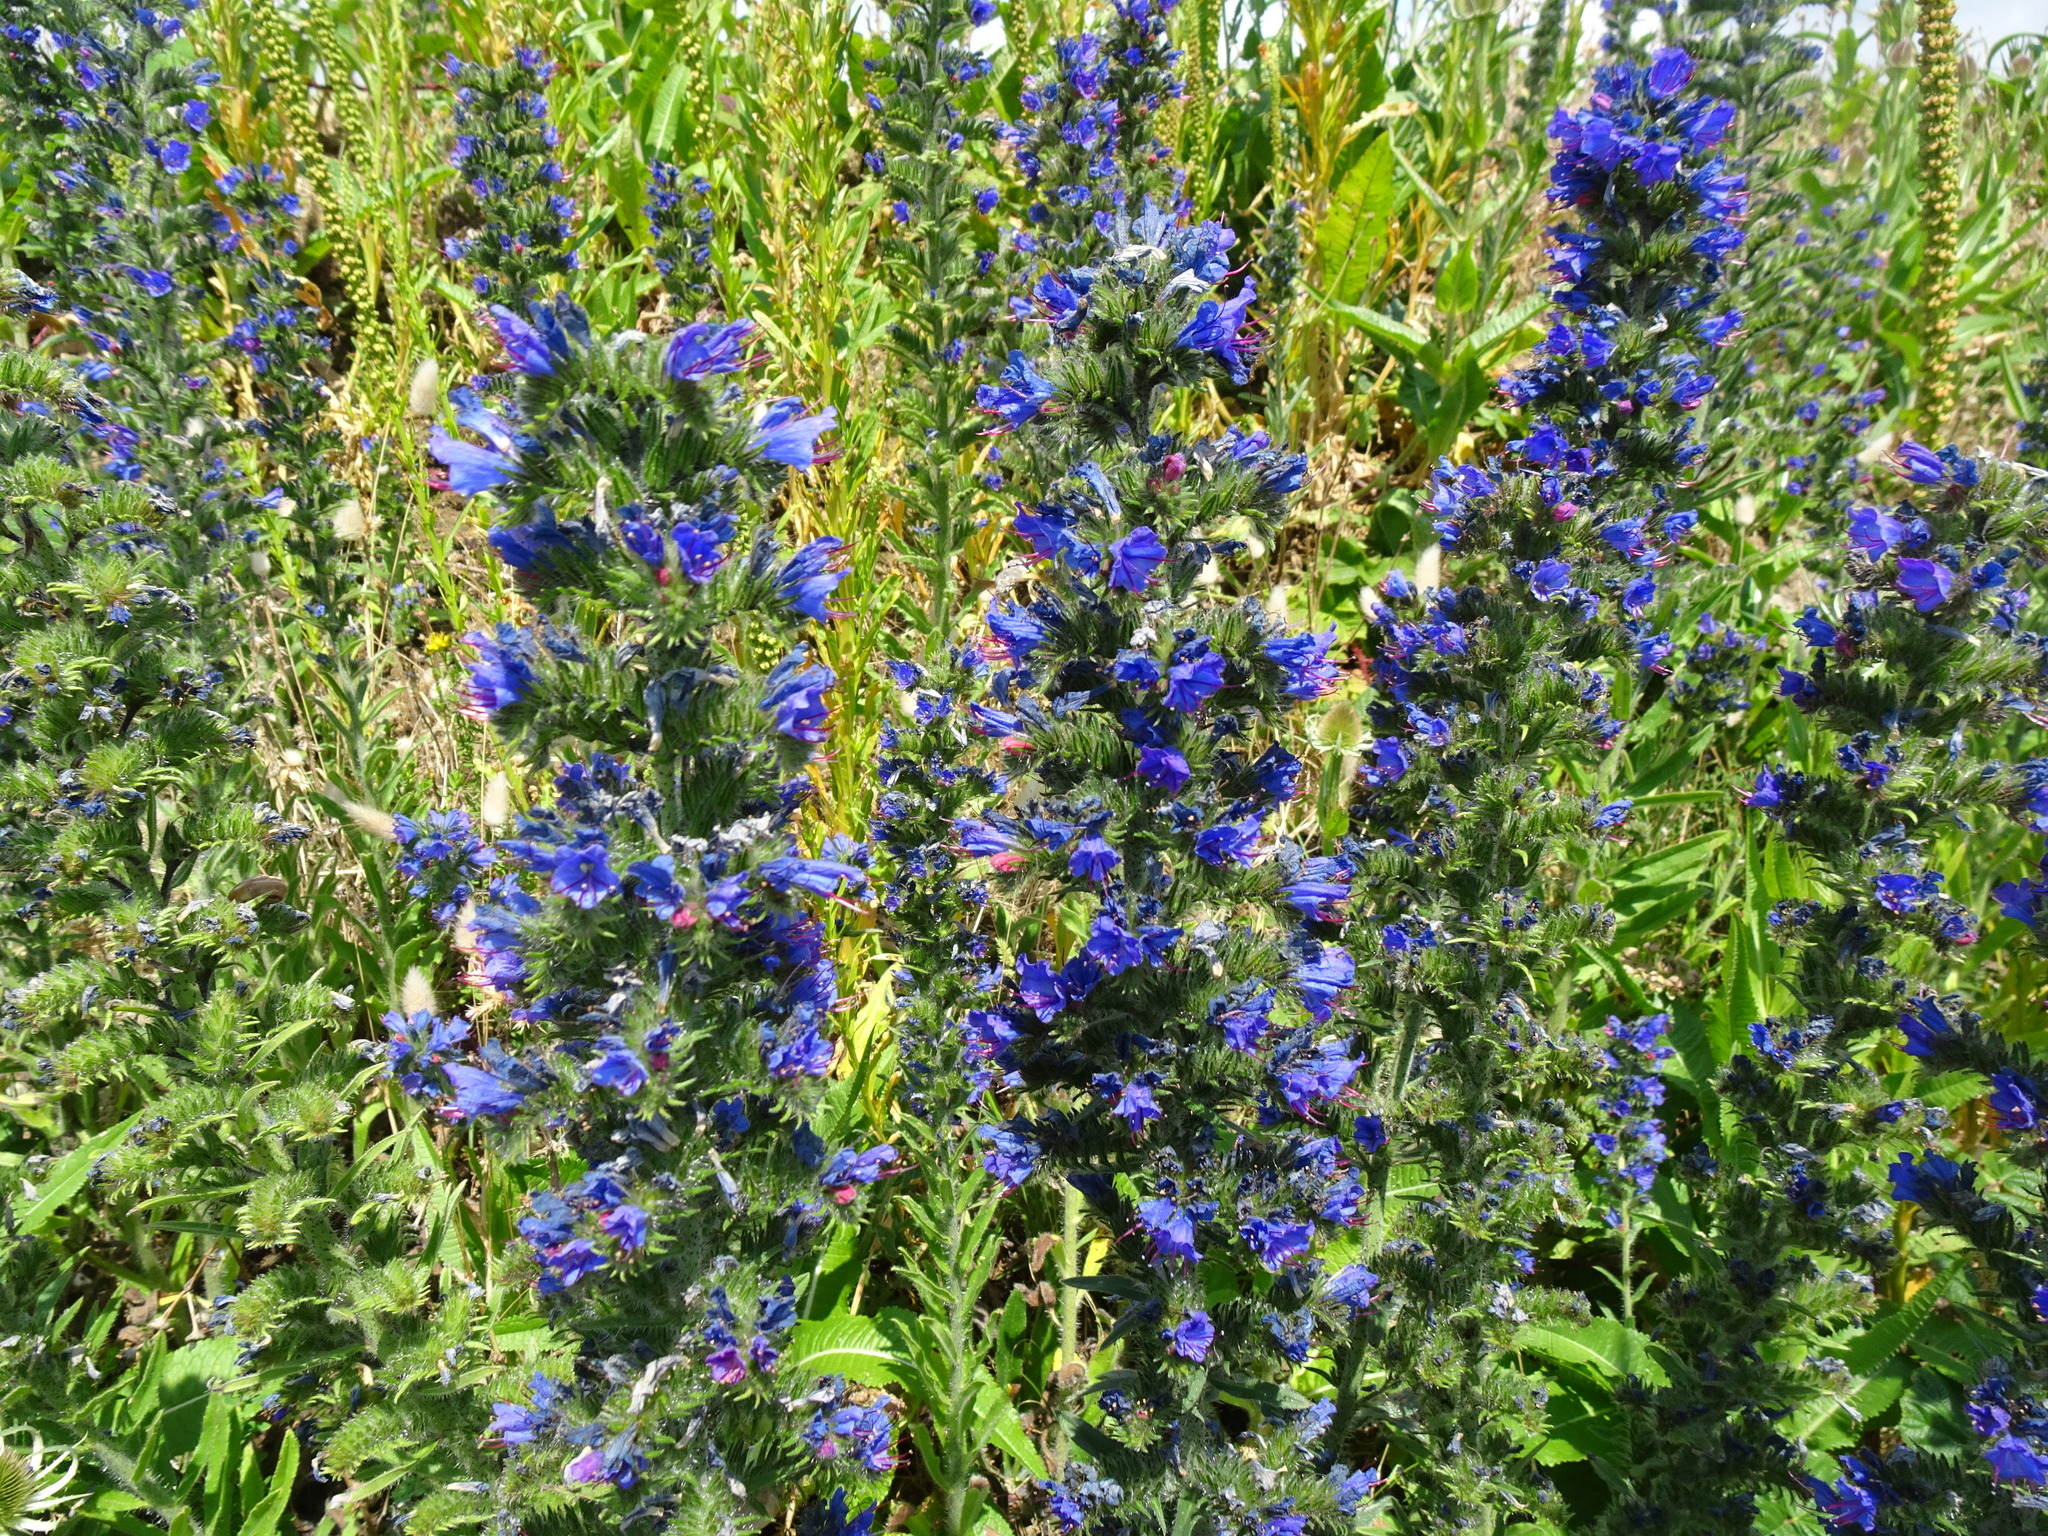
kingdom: Plantae
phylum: Tracheophyta
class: Magnoliopsida
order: Boraginales
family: Boraginaceae
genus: Echium
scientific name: Echium vulgare
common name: Common viper's bugloss
